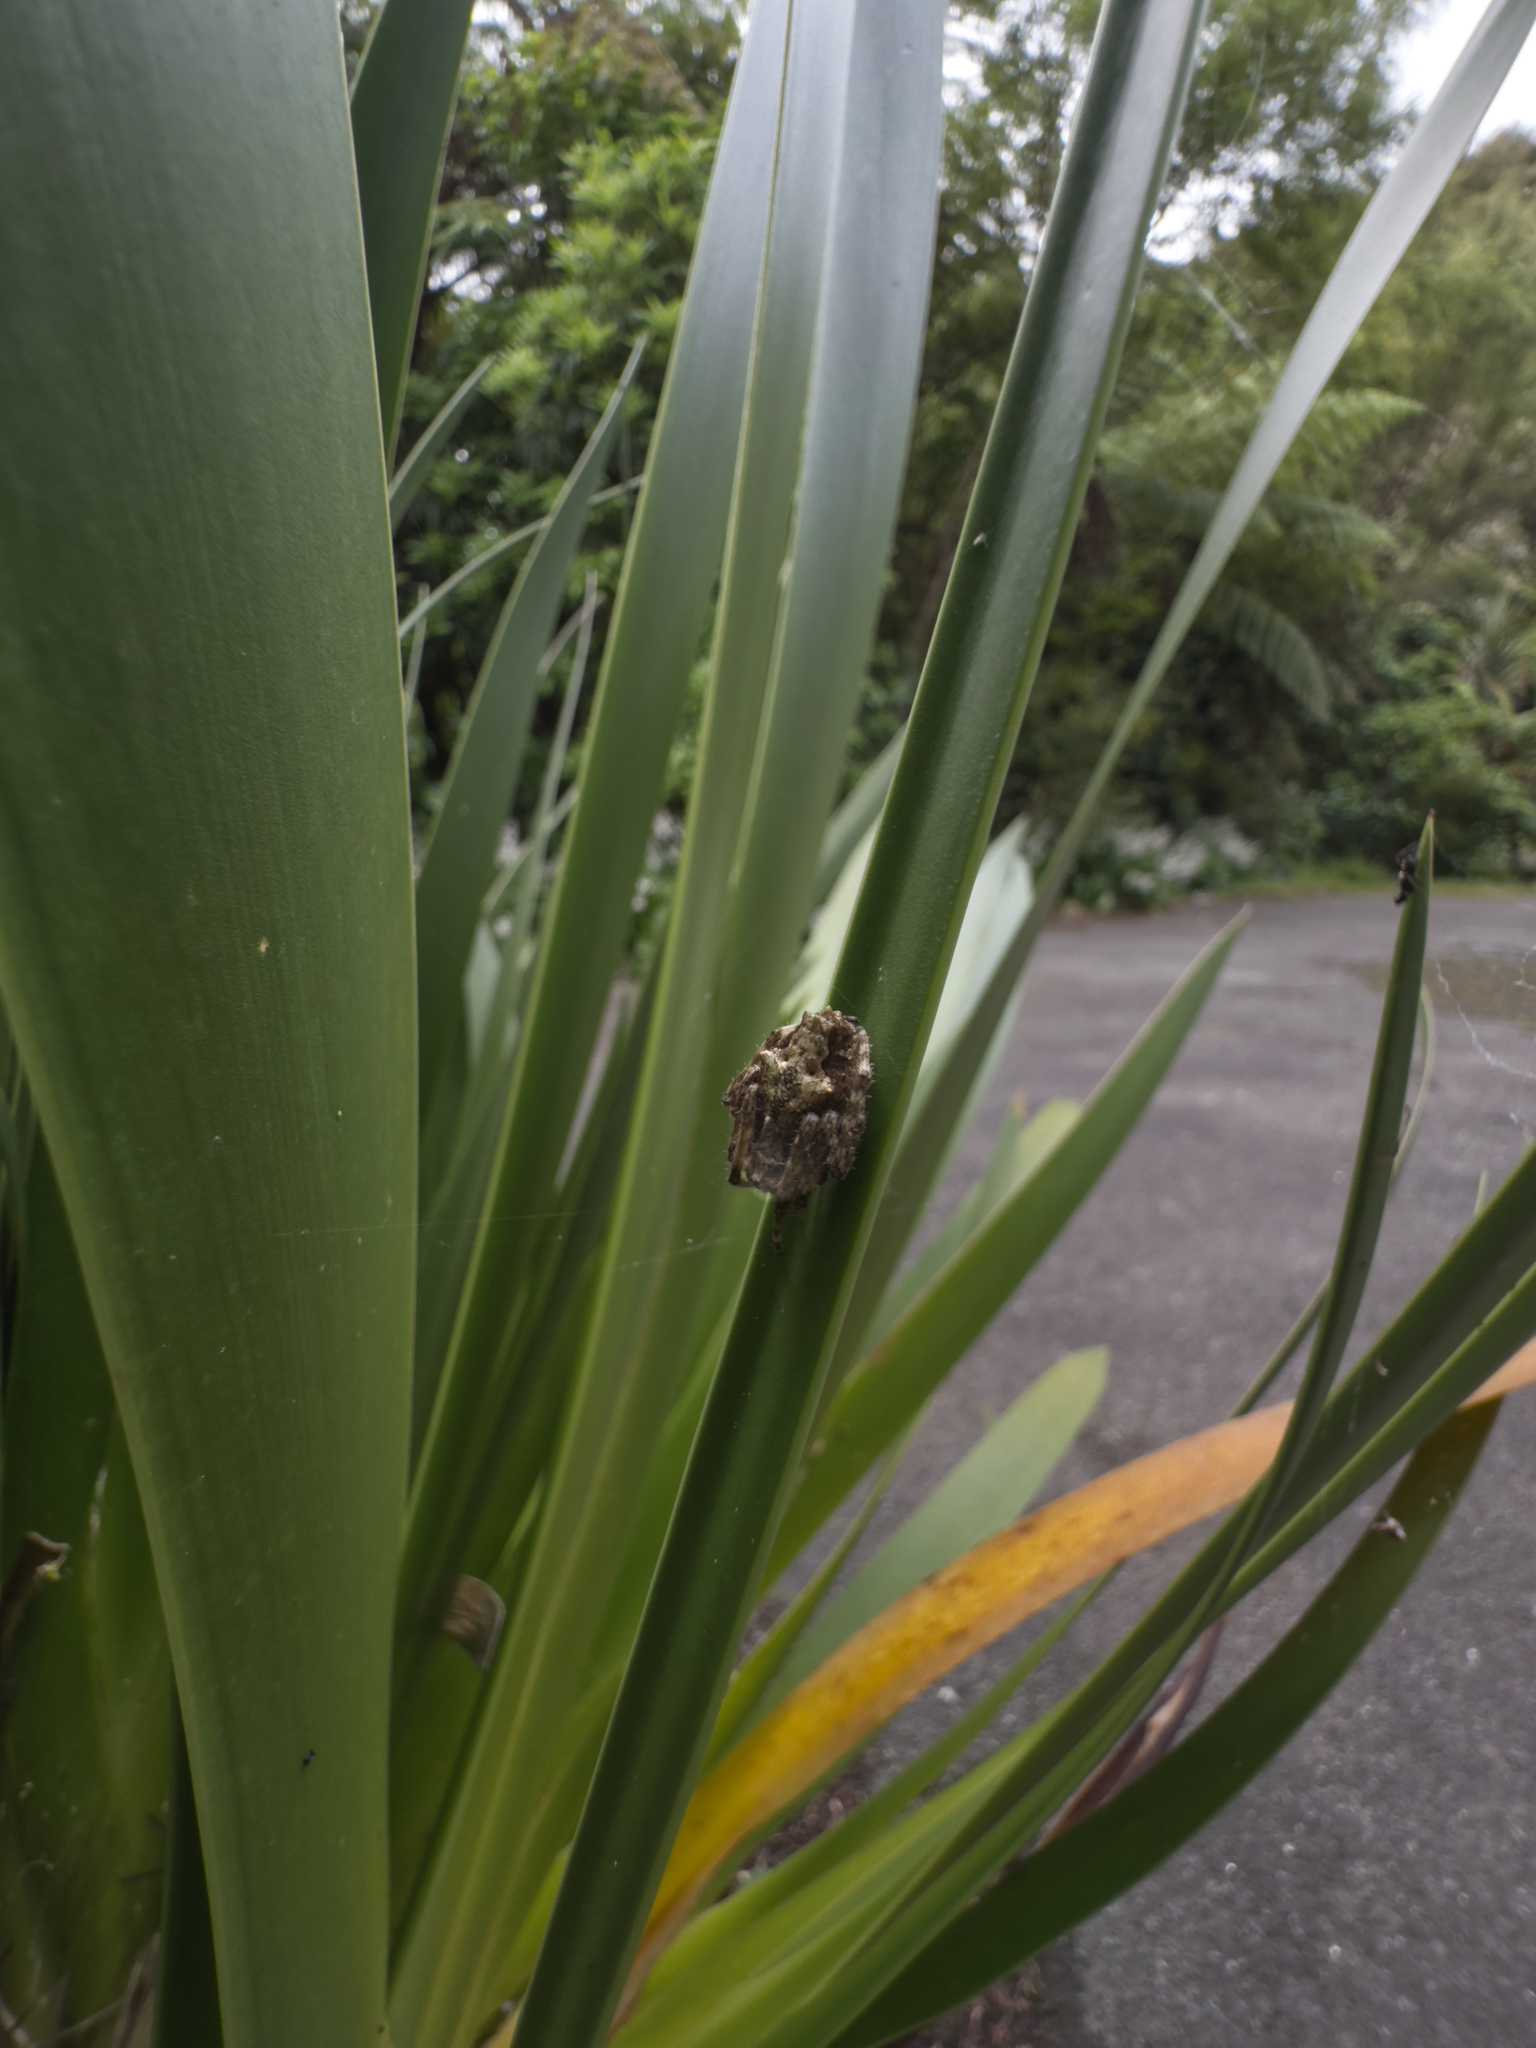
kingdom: Animalia
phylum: Arthropoda
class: Arachnida
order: Araneae
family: Araneidae
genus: Eriophora
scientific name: Eriophora pustulosa
